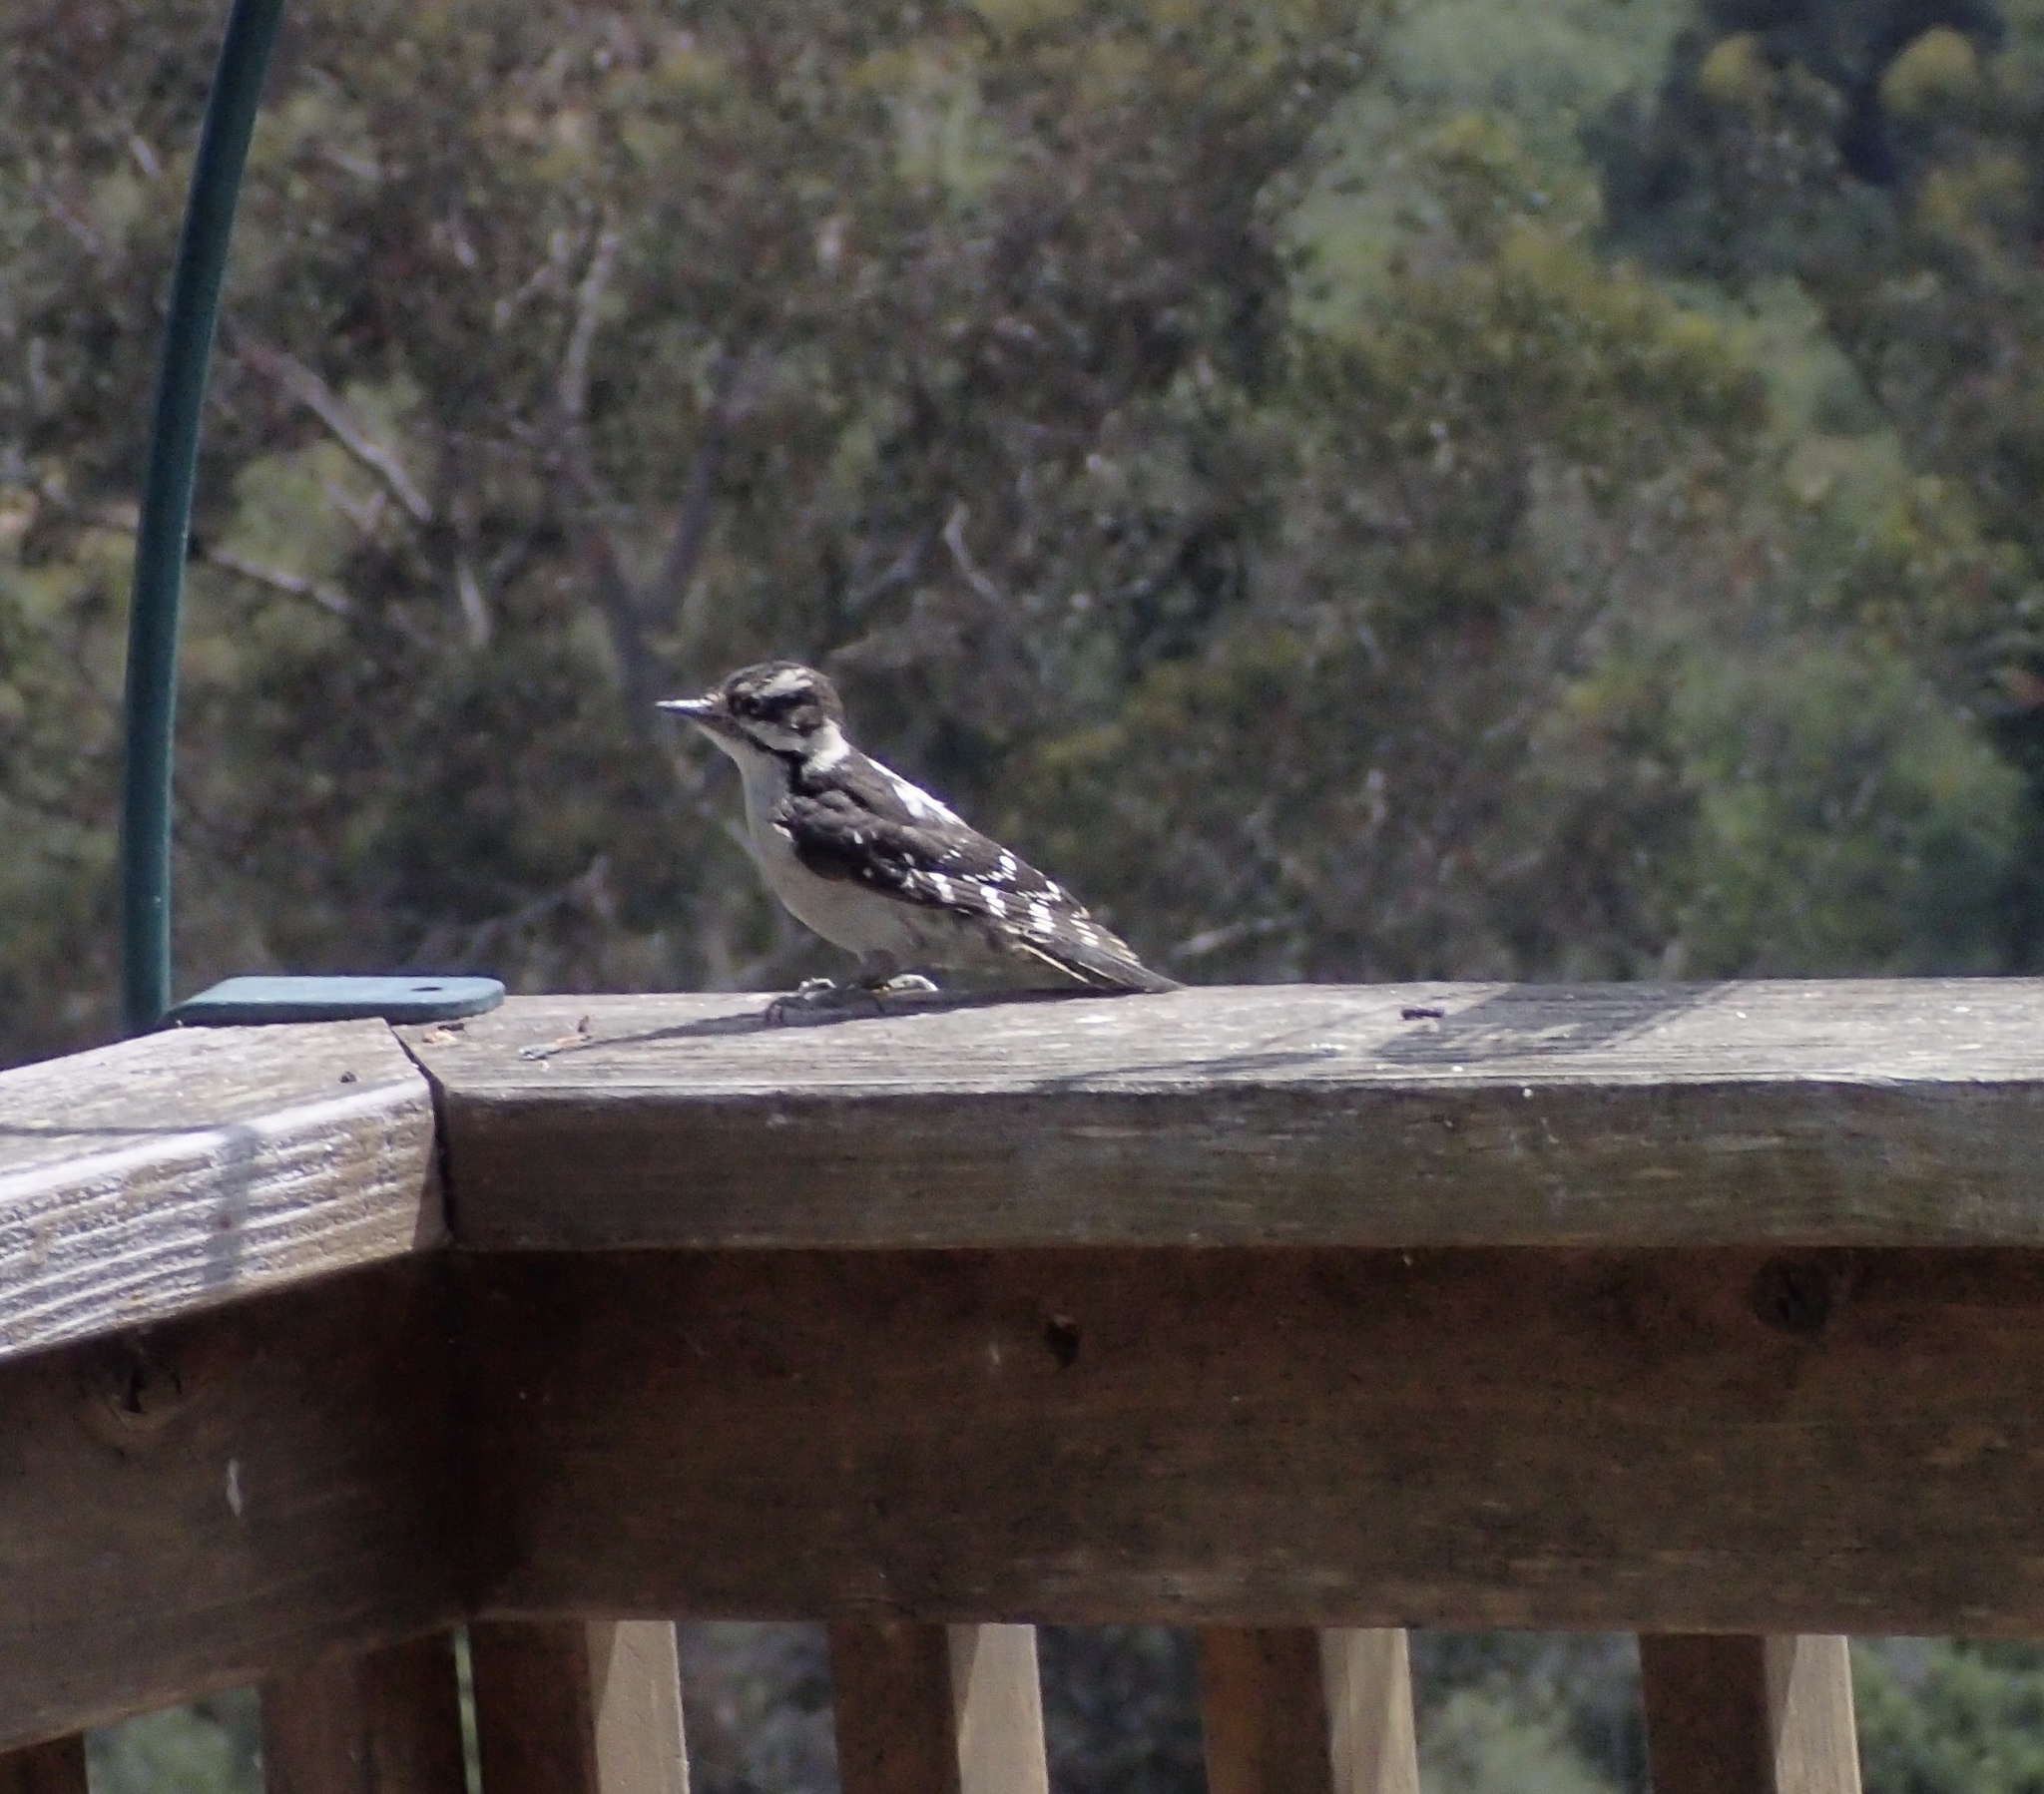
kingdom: Animalia
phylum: Chordata
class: Aves
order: Piciformes
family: Picidae
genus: Dryobates
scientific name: Dryobates pubescens
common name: Downy woodpecker
